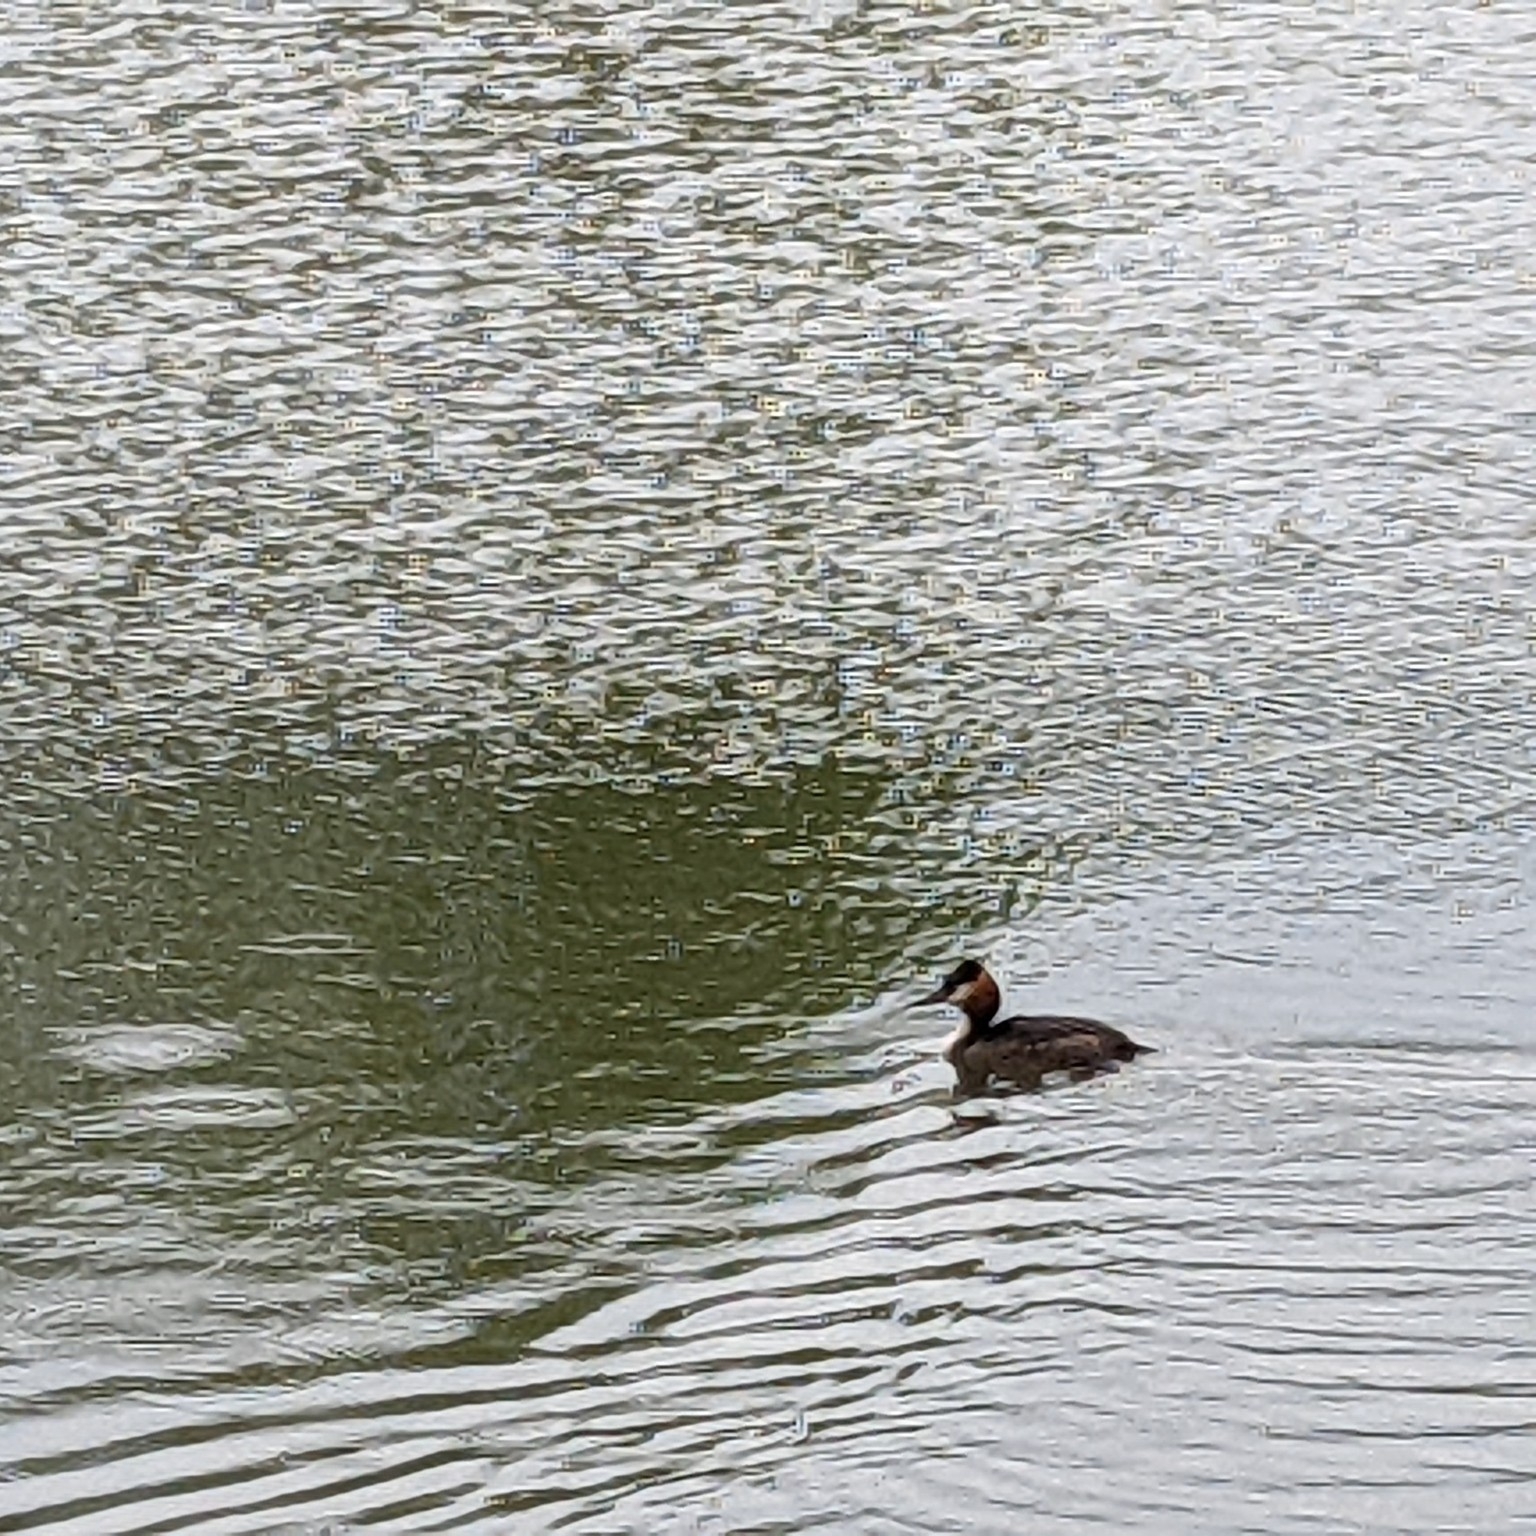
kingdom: Animalia
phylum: Chordata
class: Aves
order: Podicipediformes
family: Podicipedidae
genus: Podiceps
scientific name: Podiceps cristatus
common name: Great crested grebe
